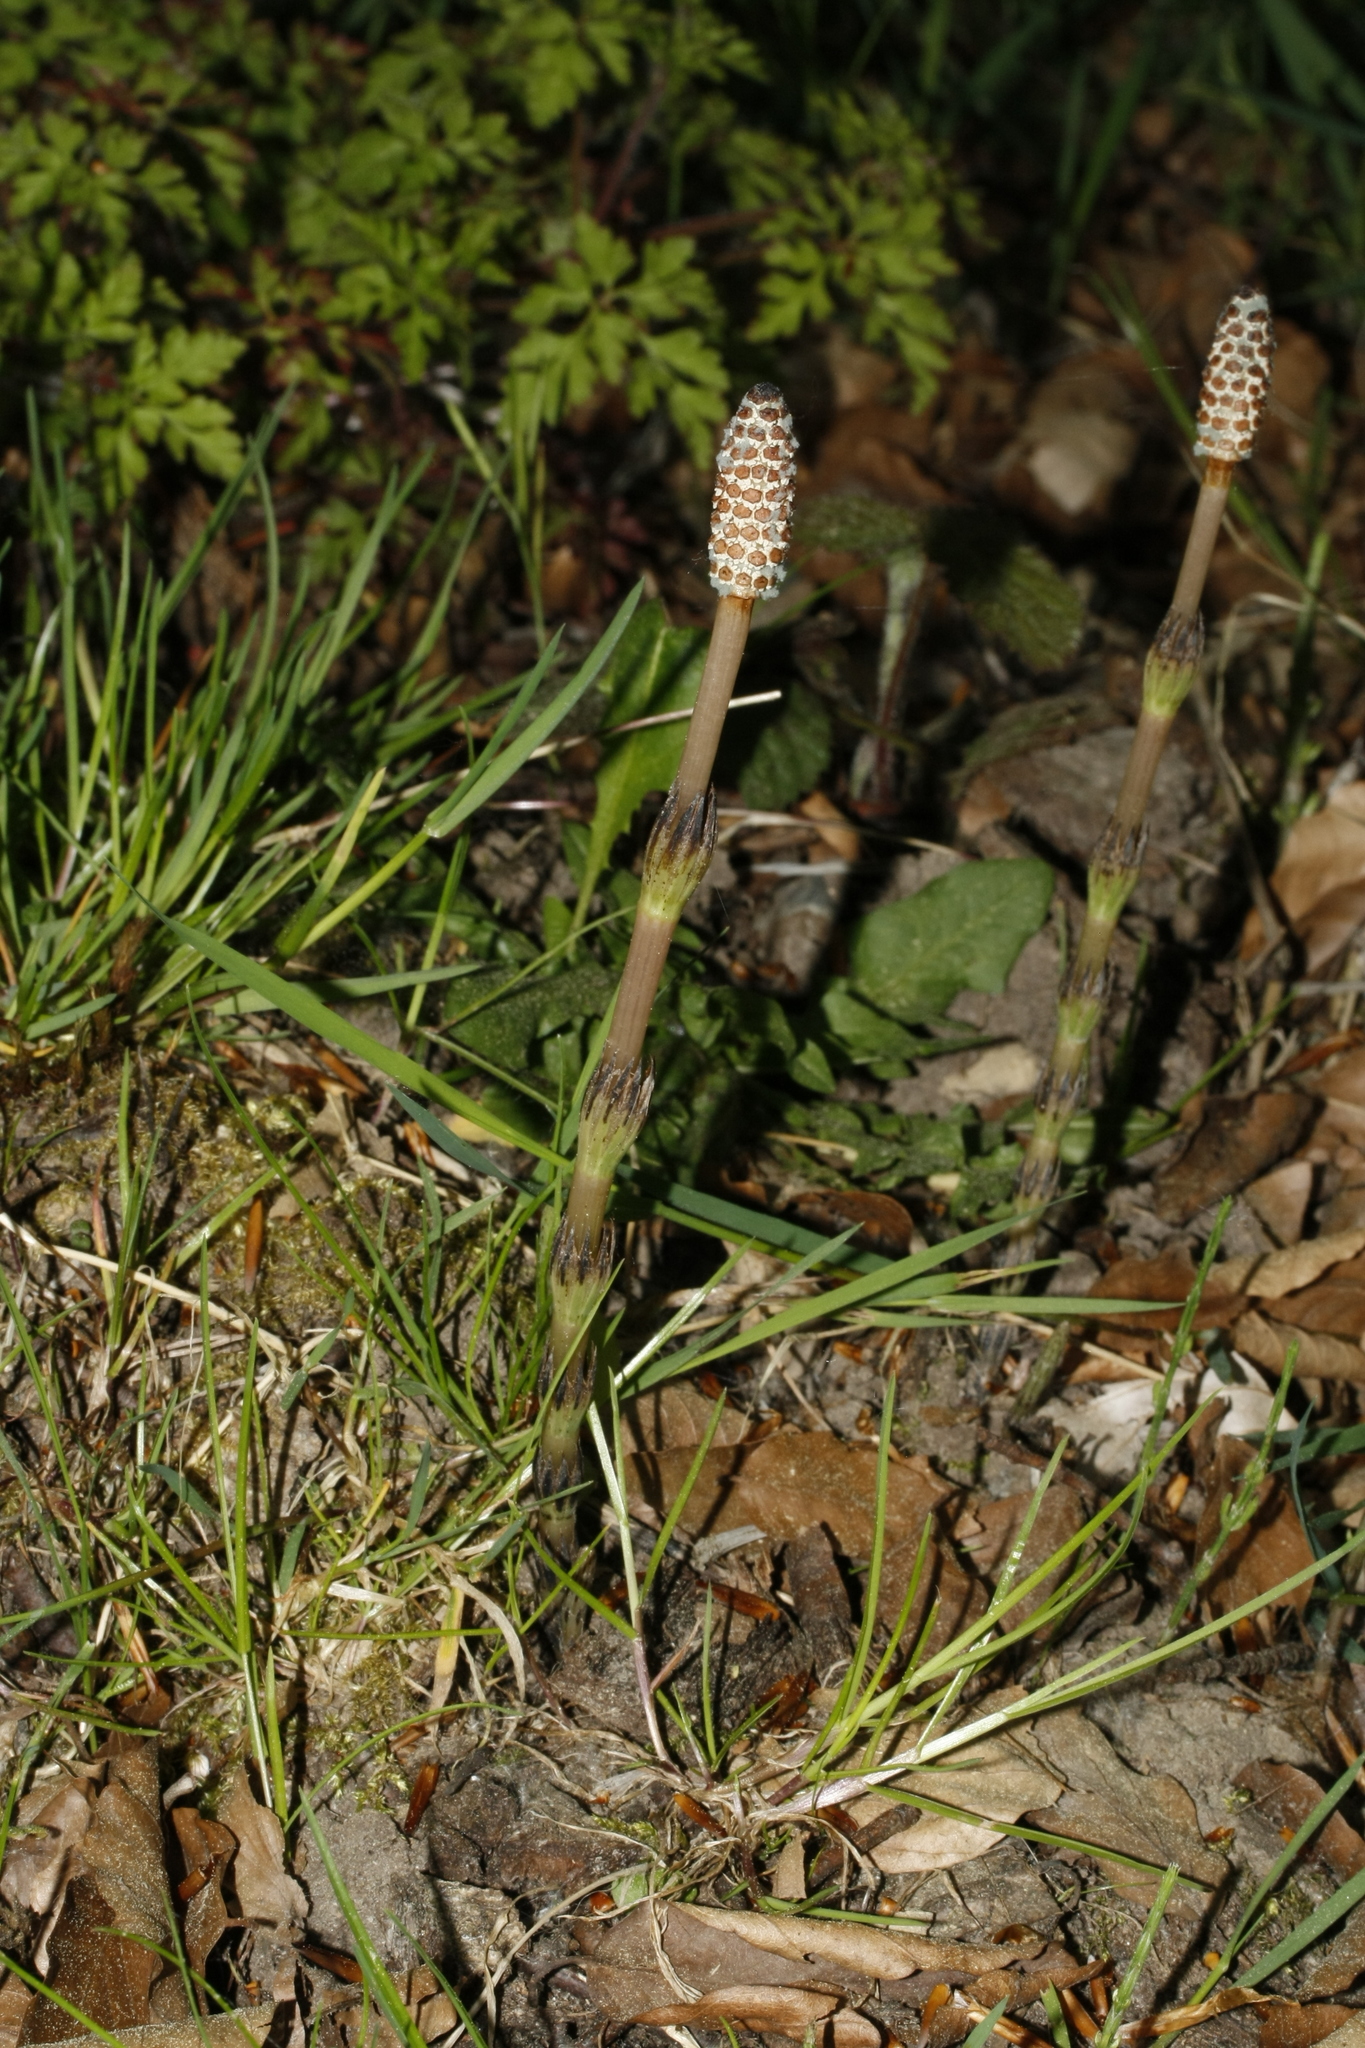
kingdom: Plantae
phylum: Tracheophyta
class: Polypodiopsida
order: Equisetales
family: Equisetaceae
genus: Equisetum
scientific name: Equisetum arvense
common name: Field horsetail
